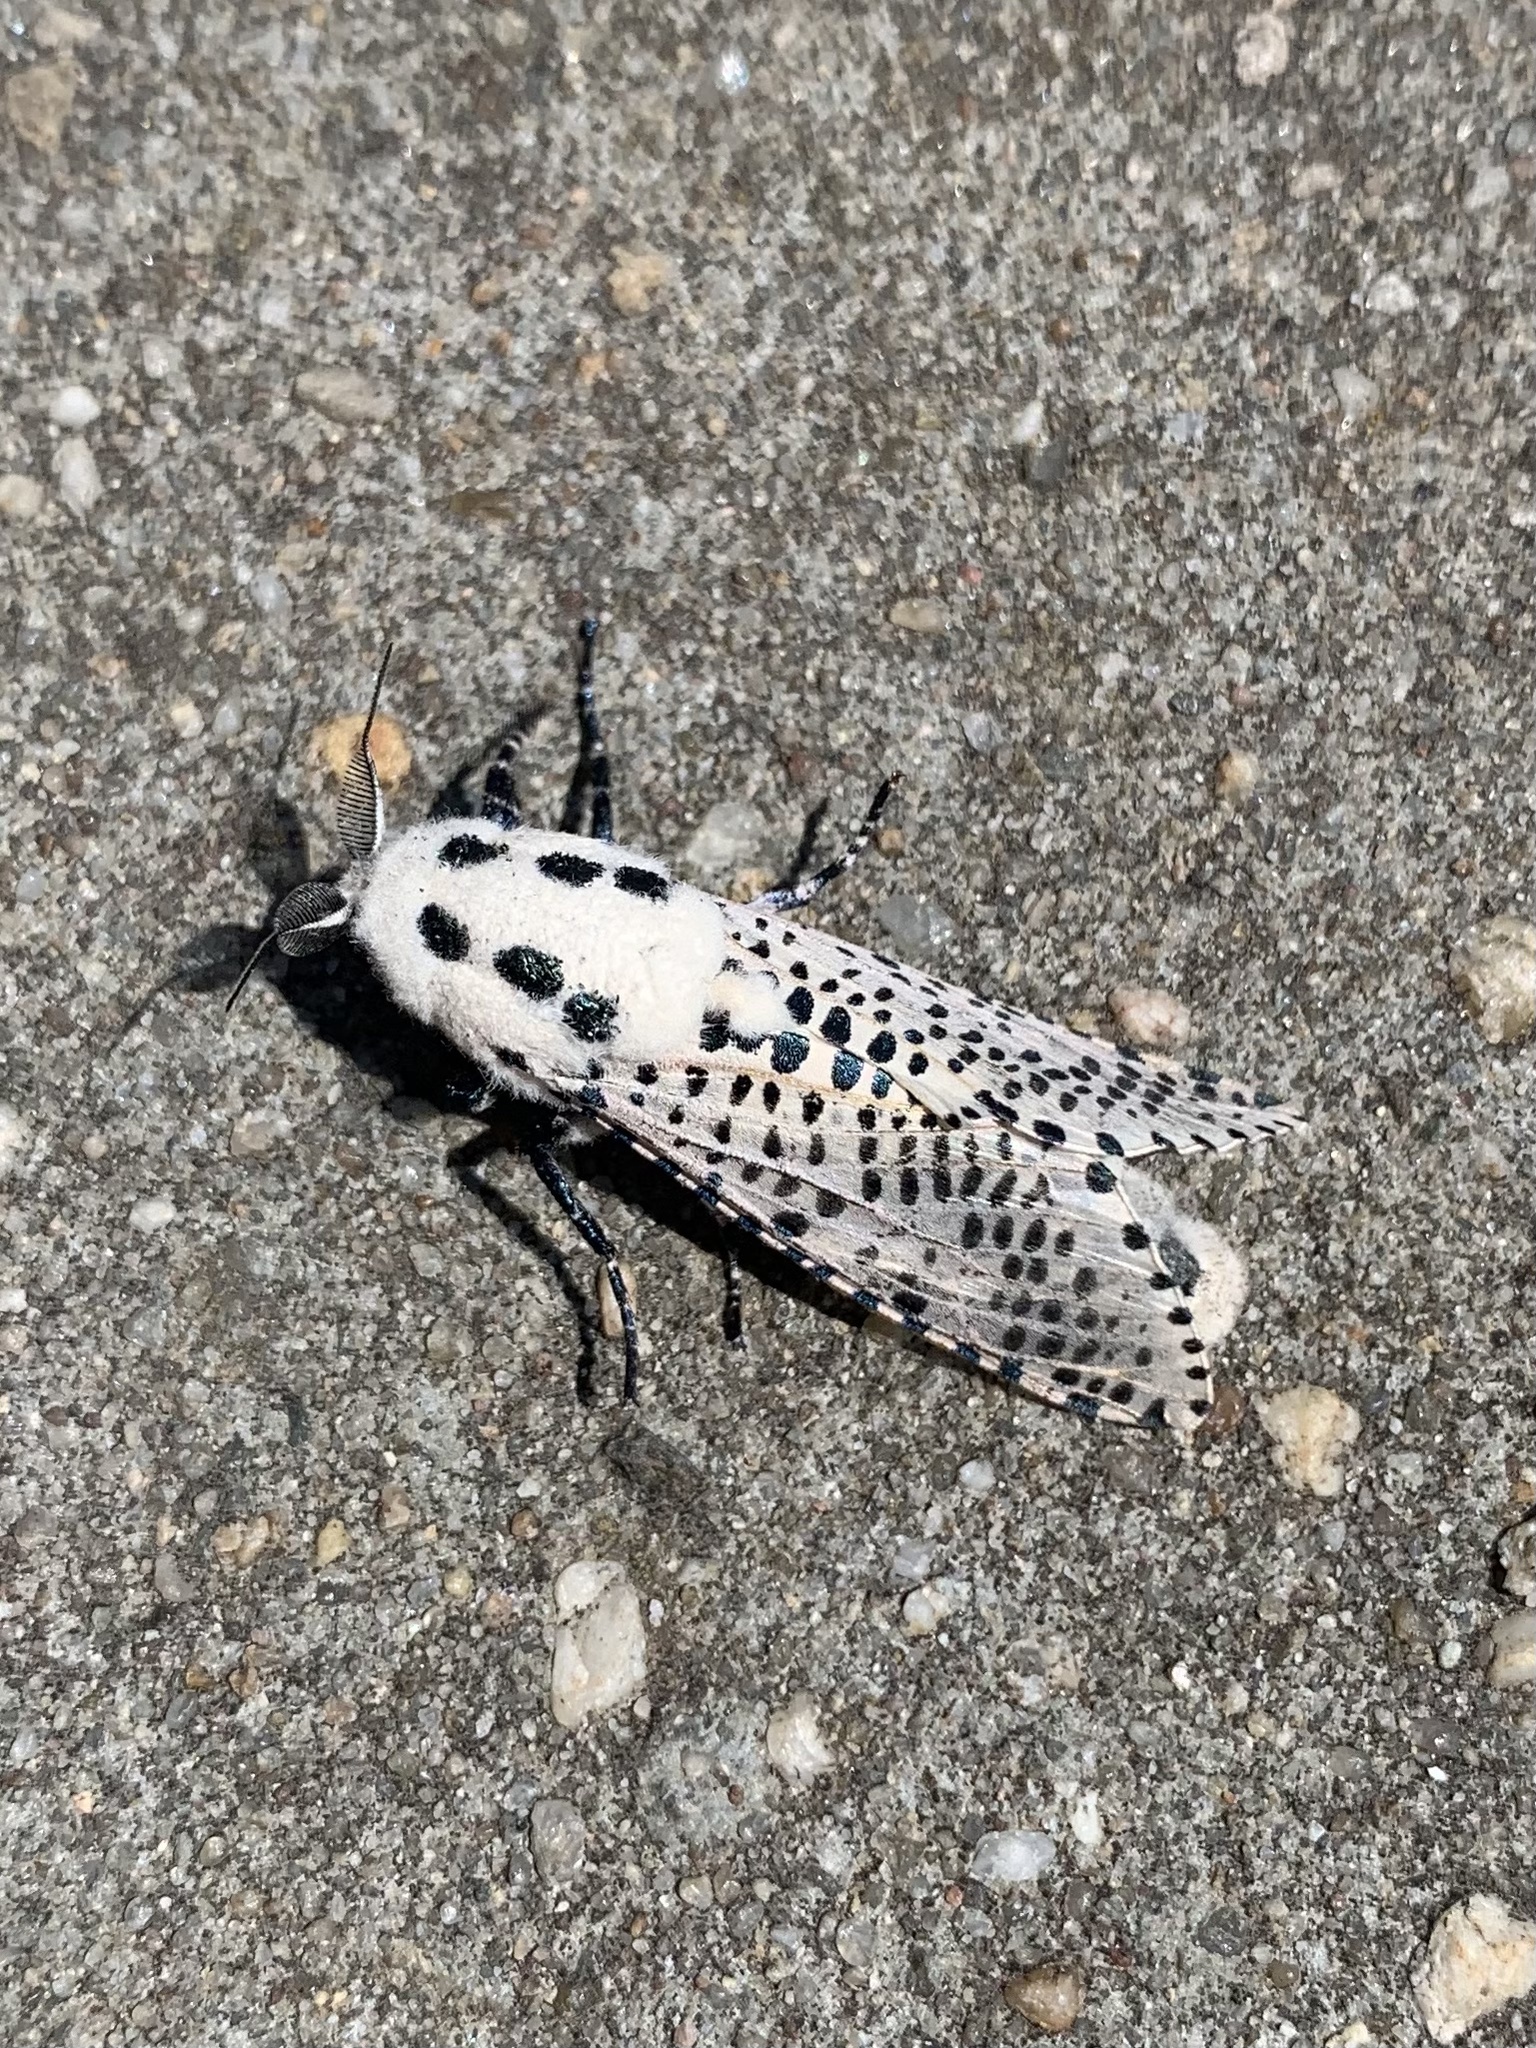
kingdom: Animalia
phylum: Arthropoda
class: Insecta
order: Lepidoptera
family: Cossidae
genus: Zeuzera
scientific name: Zeuzera pyrina
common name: Leopard moth
